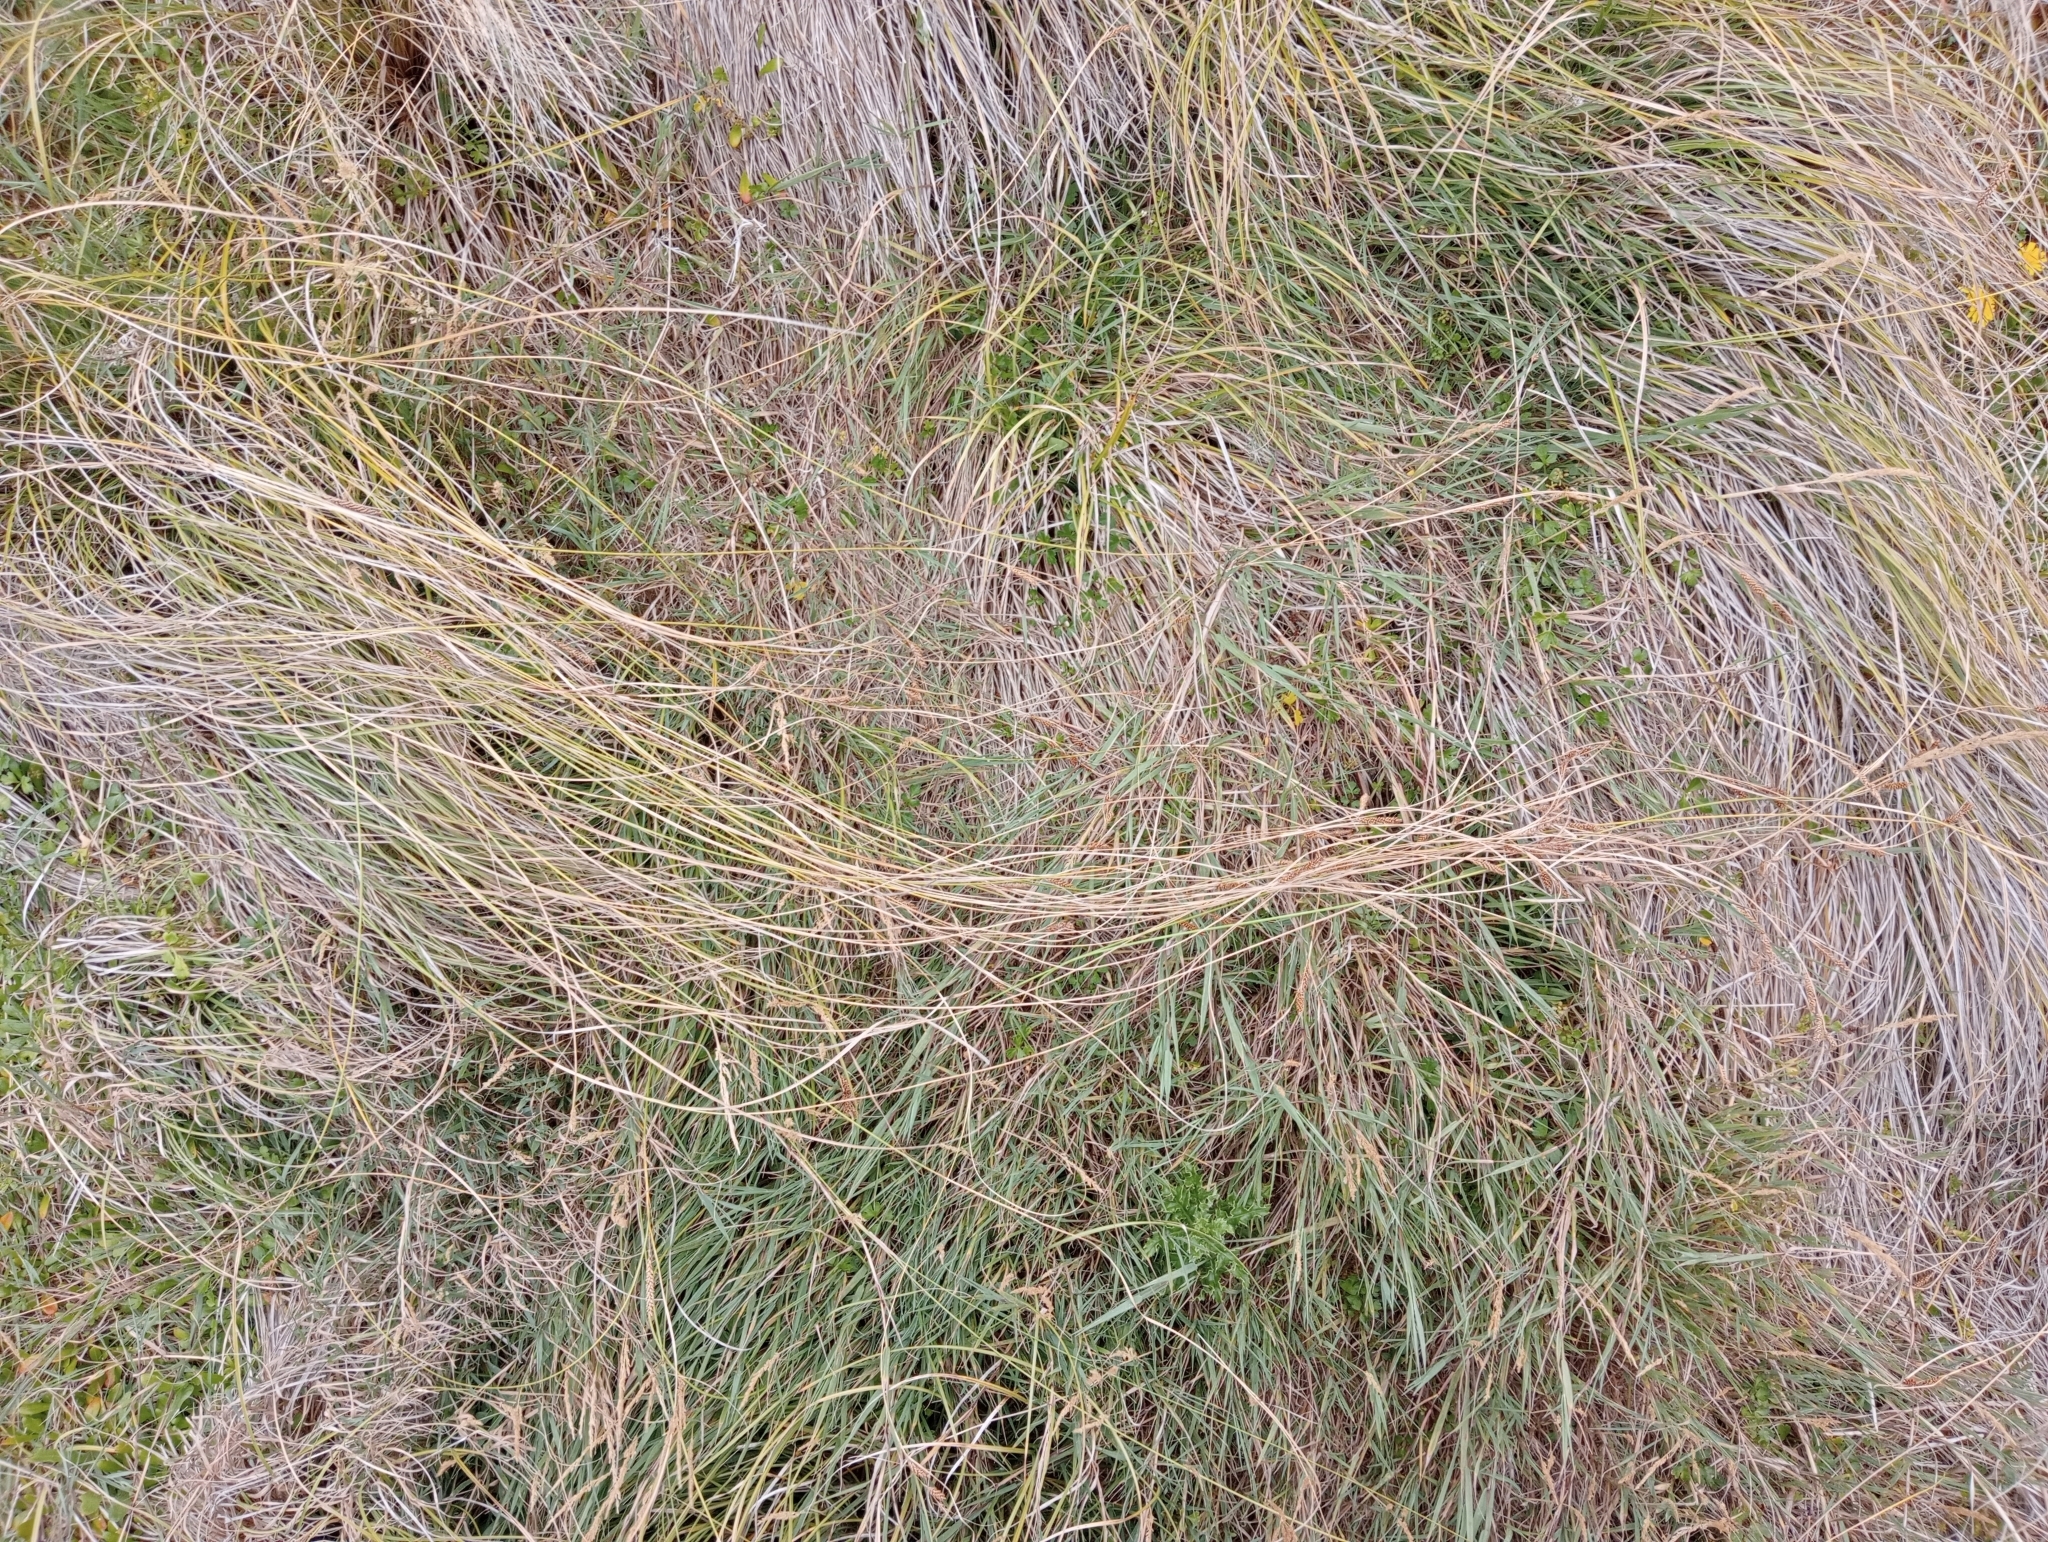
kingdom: Plantae
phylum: Tracheophyta
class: Liliopsida
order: Poales
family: Cyperaceae
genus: Carex
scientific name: Carex testacea
